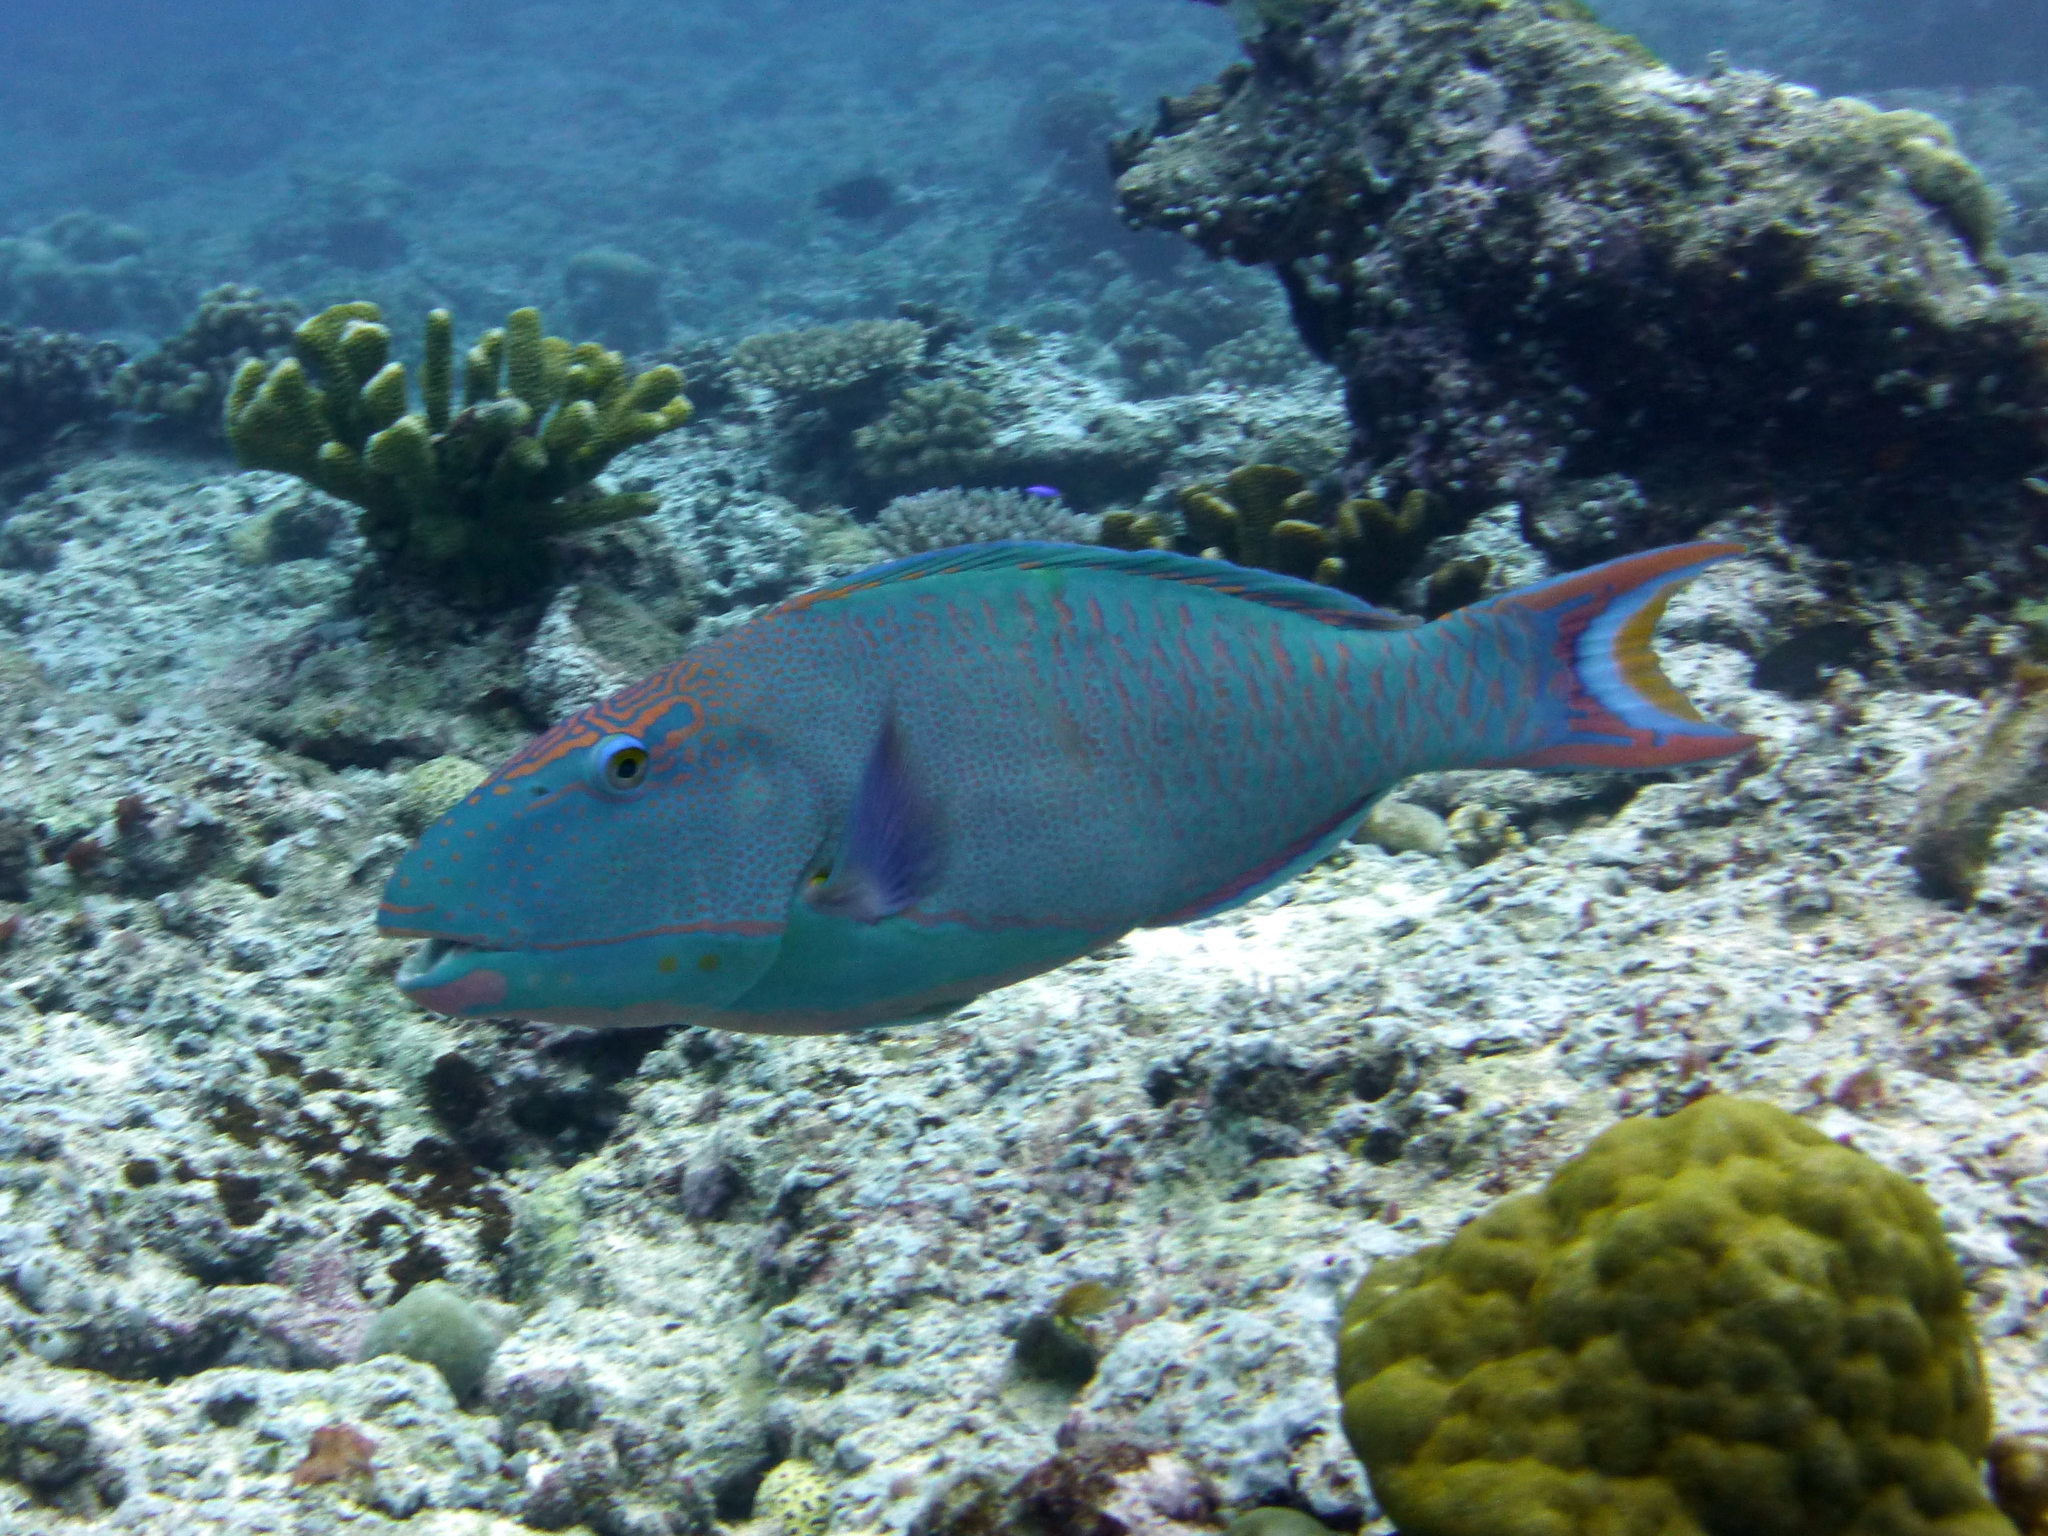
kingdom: Animalia
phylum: Chordata
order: Perciformes
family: Scaridae
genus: Cetoscarus
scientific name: Cetoscarus ocellatus
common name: Bicolor parrotfish
